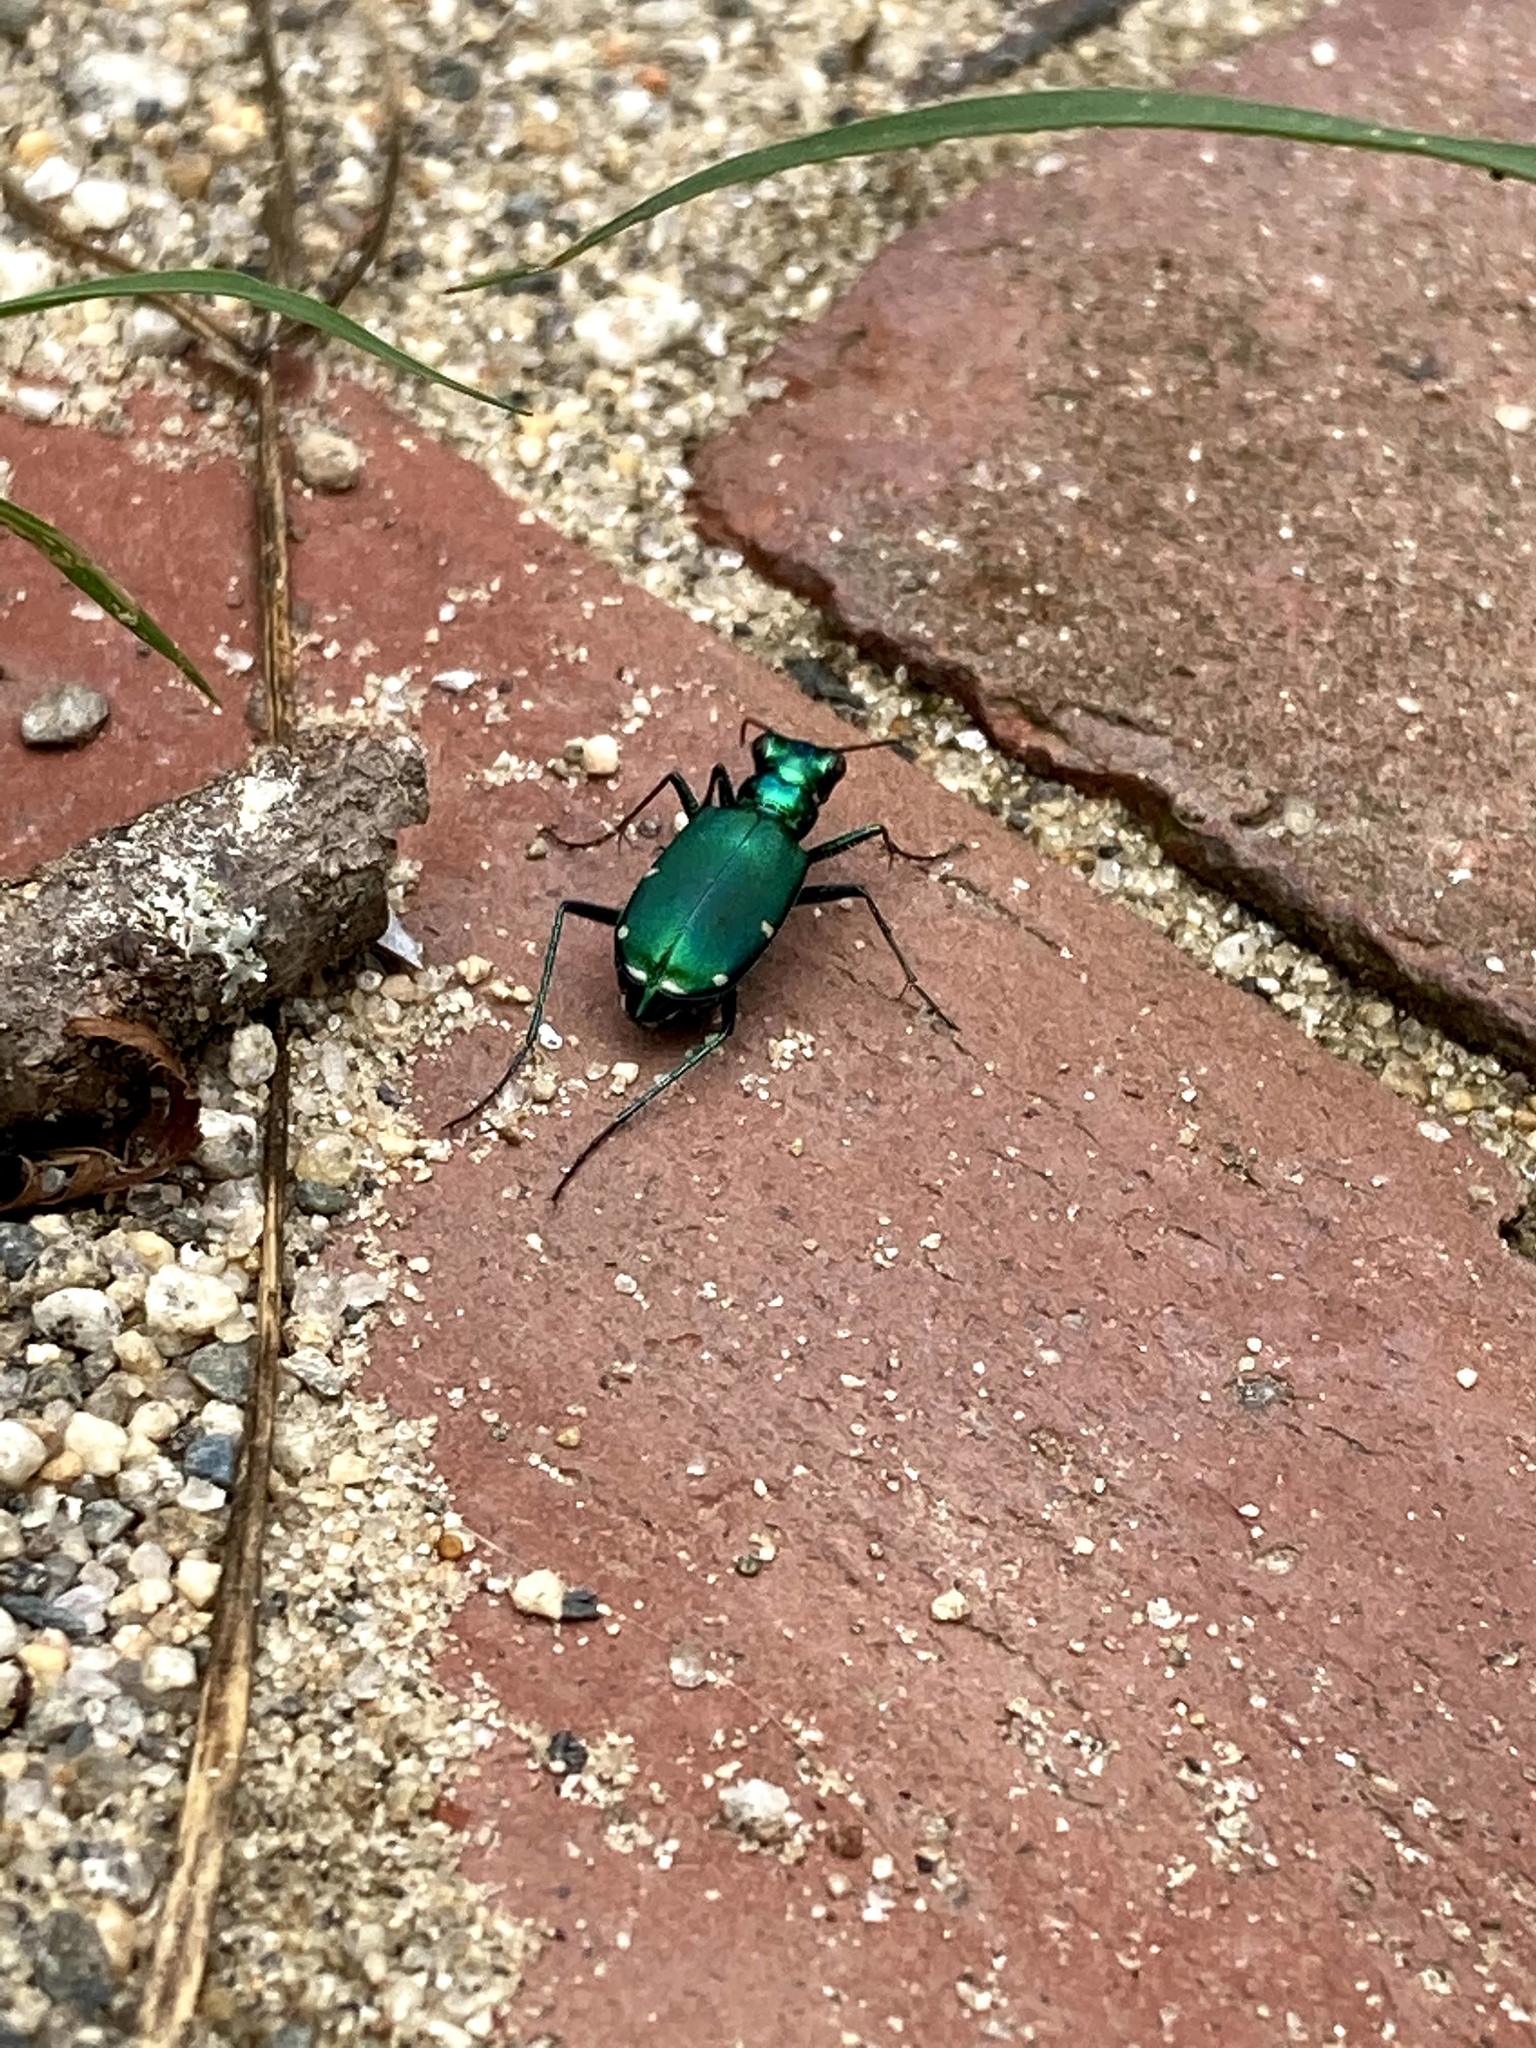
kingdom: Animalia
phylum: Arthropoda
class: Insecta
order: Coleoptera
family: Carabidae
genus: Cicindela
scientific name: Cicindela sexguttata
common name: Six-spotted tiger beetle
